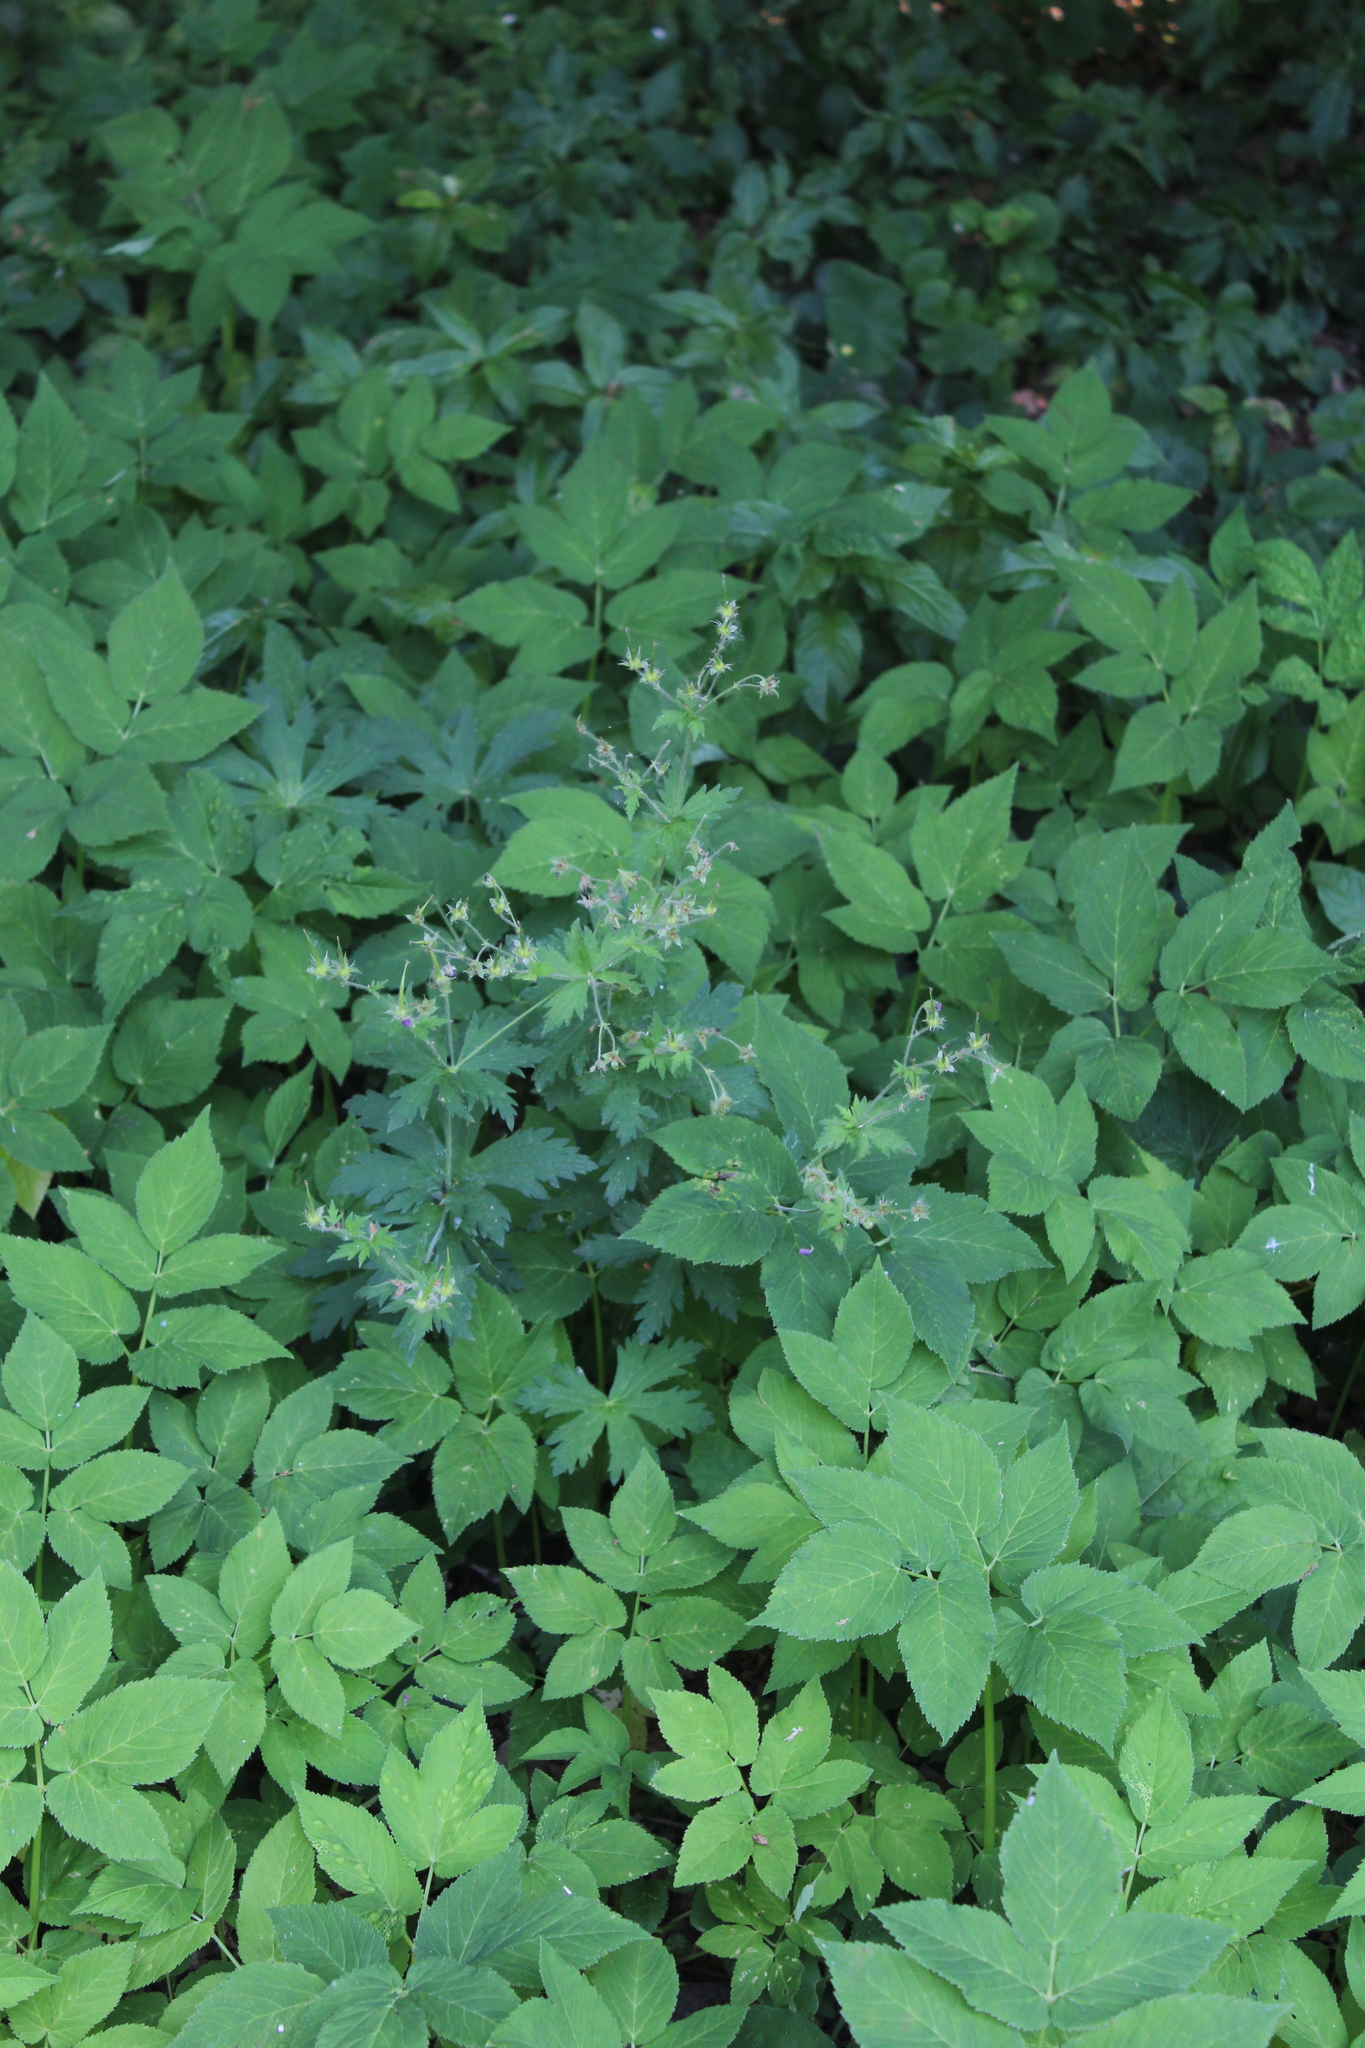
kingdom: Plantae
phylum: Tracheophyta
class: Magnoliopsida
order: Geraniales
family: Geraniaceae
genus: Geranium
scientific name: Geranium sylvaticum
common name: Wood crane's-bill
